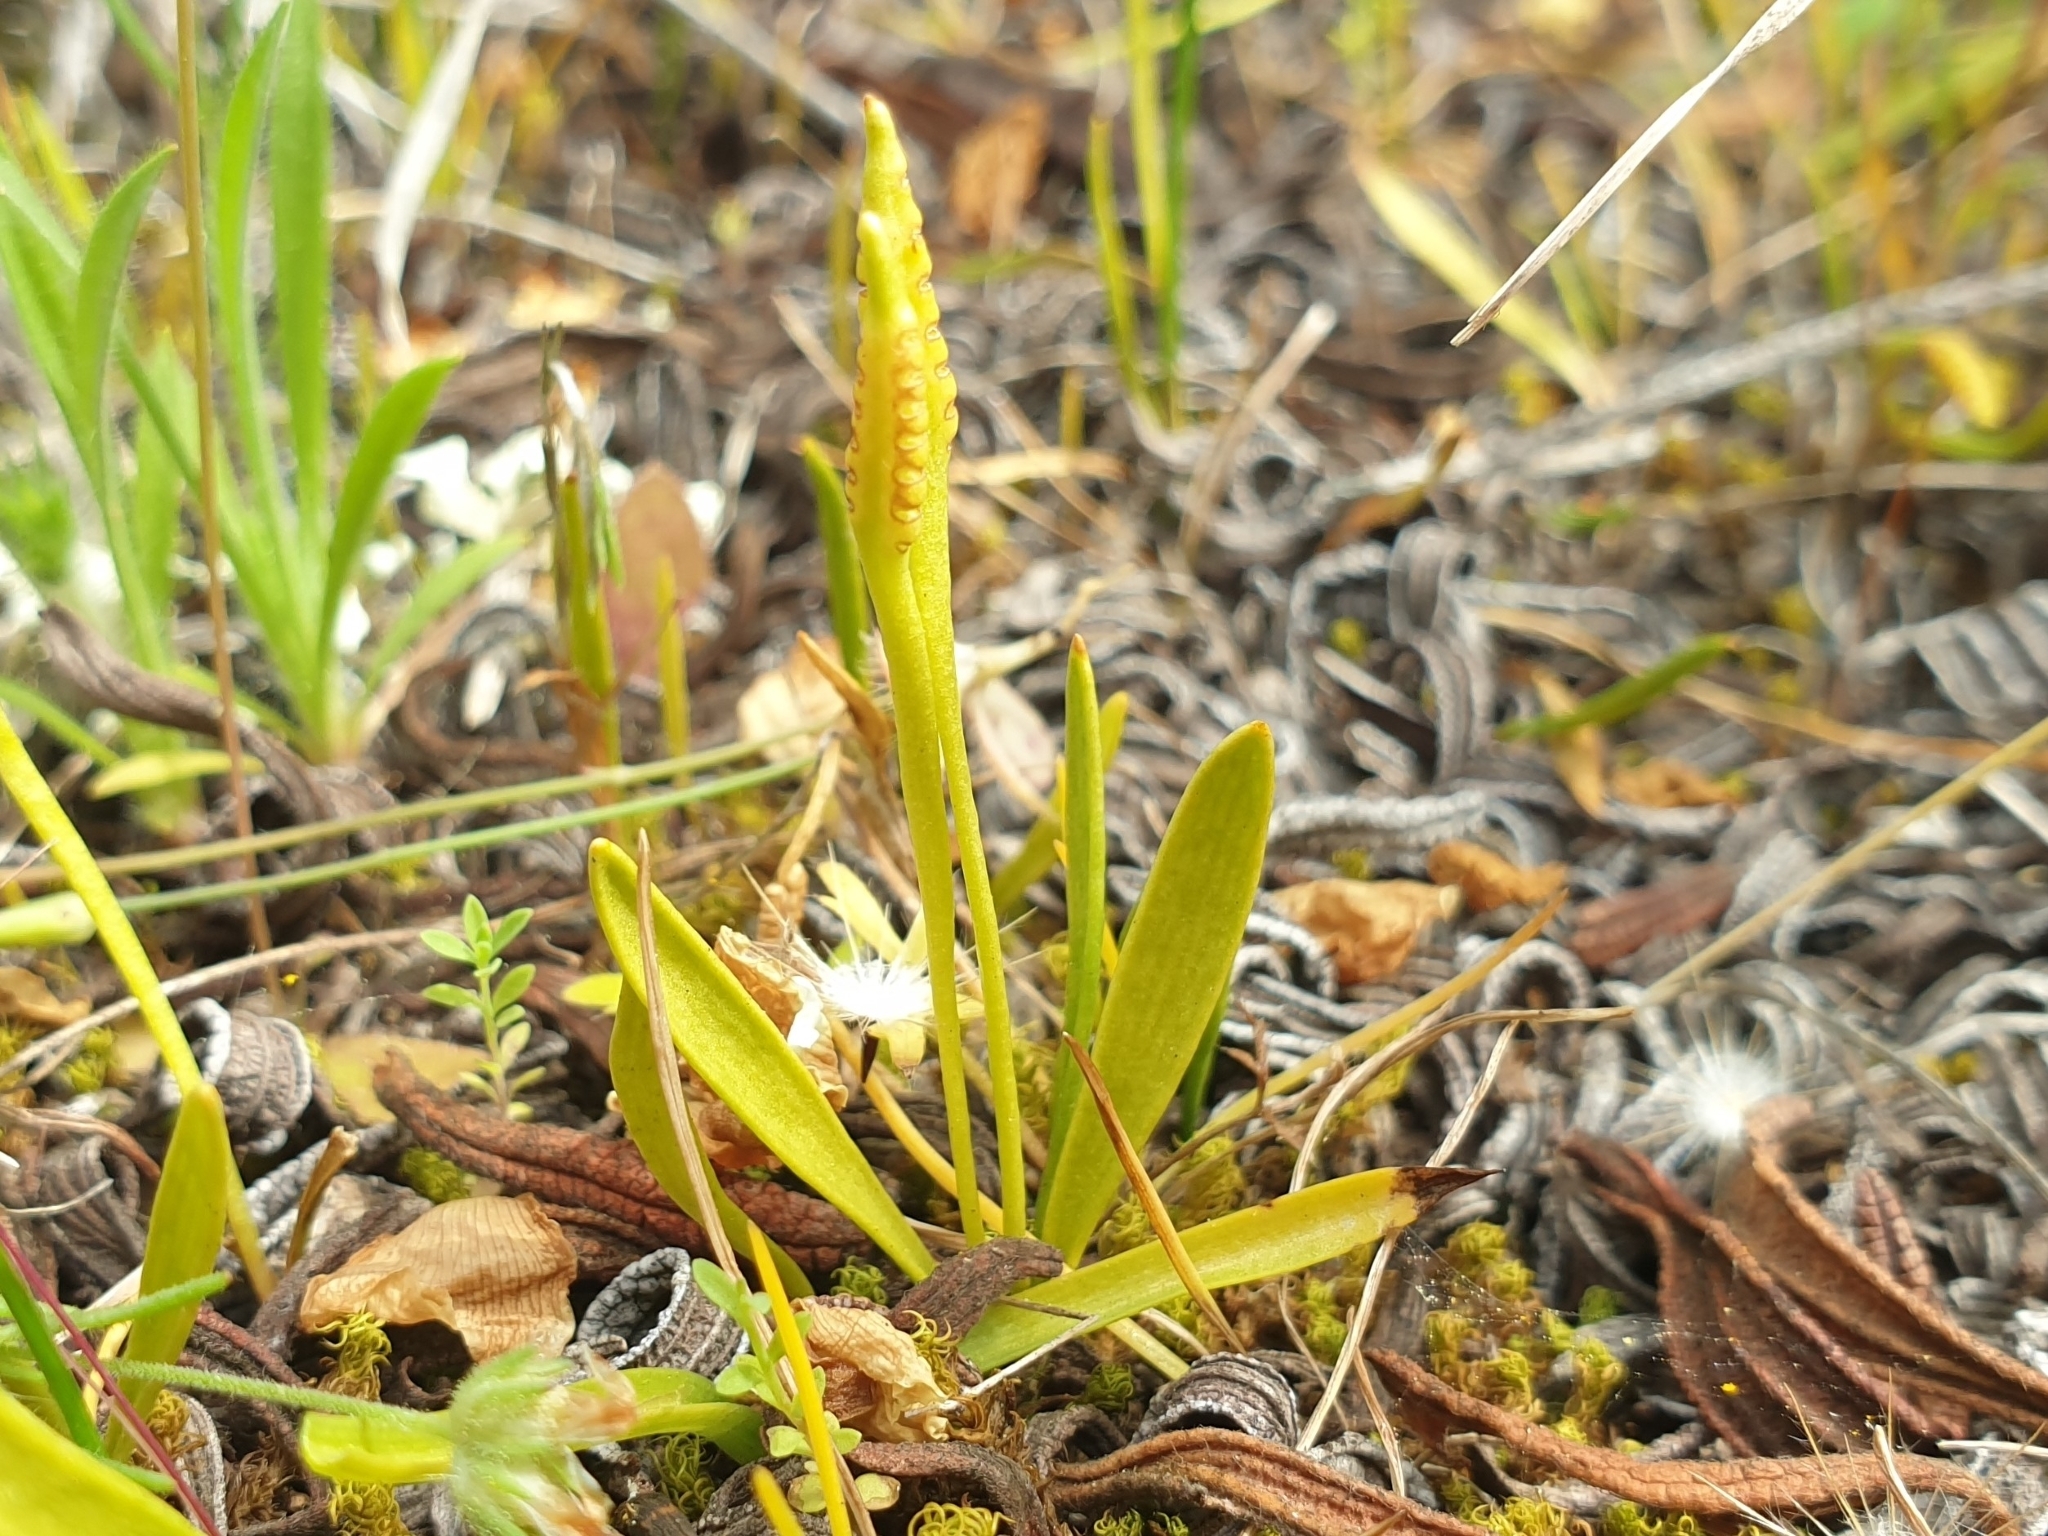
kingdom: Plantae
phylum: Tracheophyta
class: Polypodiopsida
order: Ophioglossales
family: Ophioglossaceae
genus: Ophioglossum
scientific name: Ophioglossum lusitanicum
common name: Least adder's-tongue
